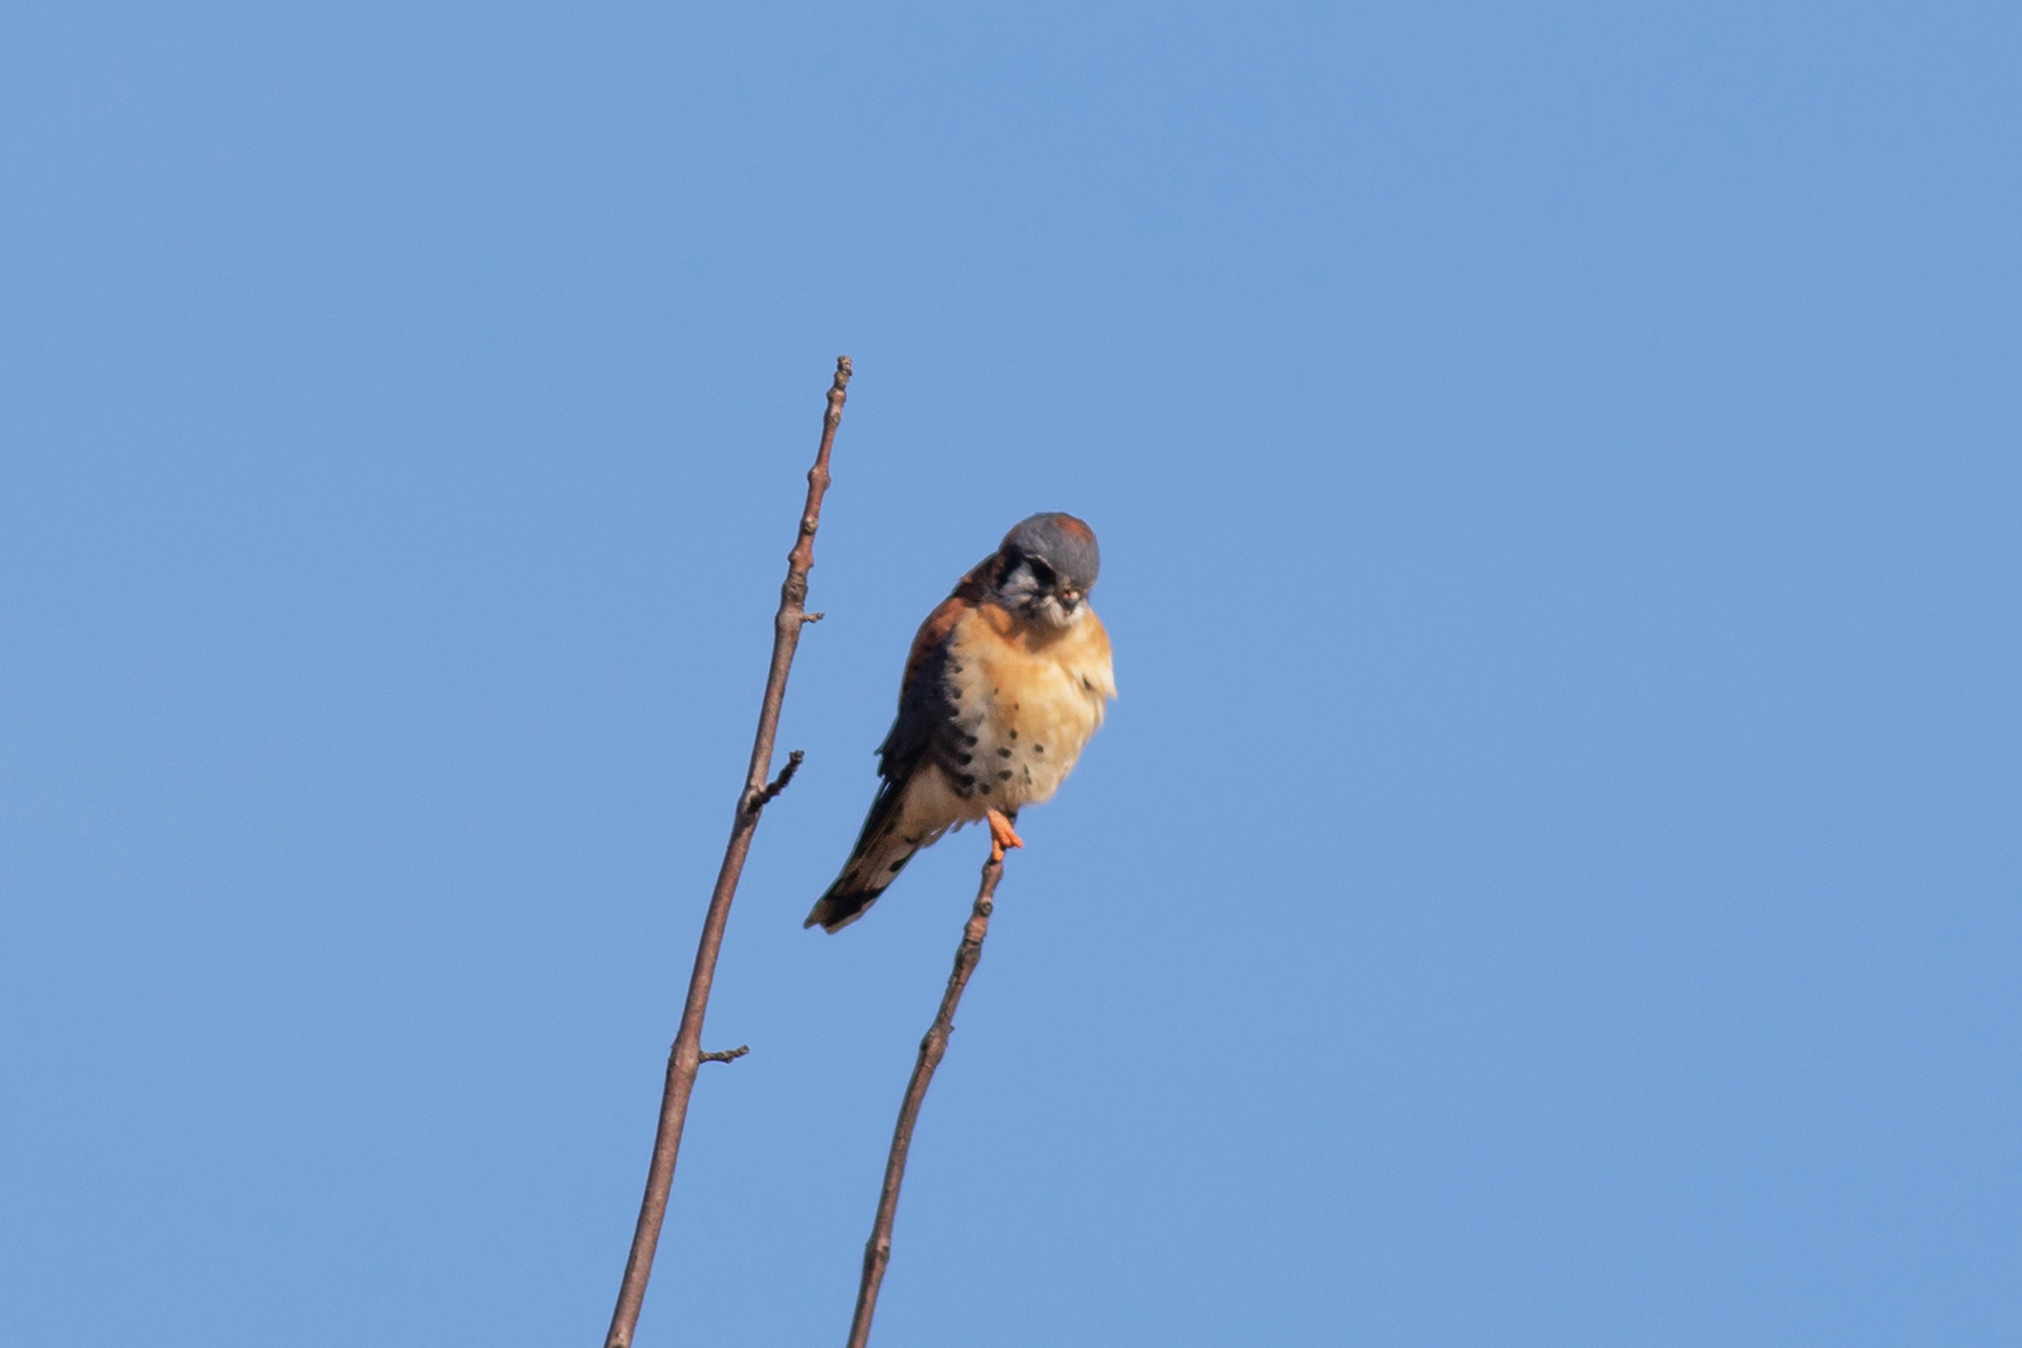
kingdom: Animalia
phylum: Chordata
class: Aves
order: Falconiformes
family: Falconidae
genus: Falco
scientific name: Falco sparverius
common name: American kestrel
